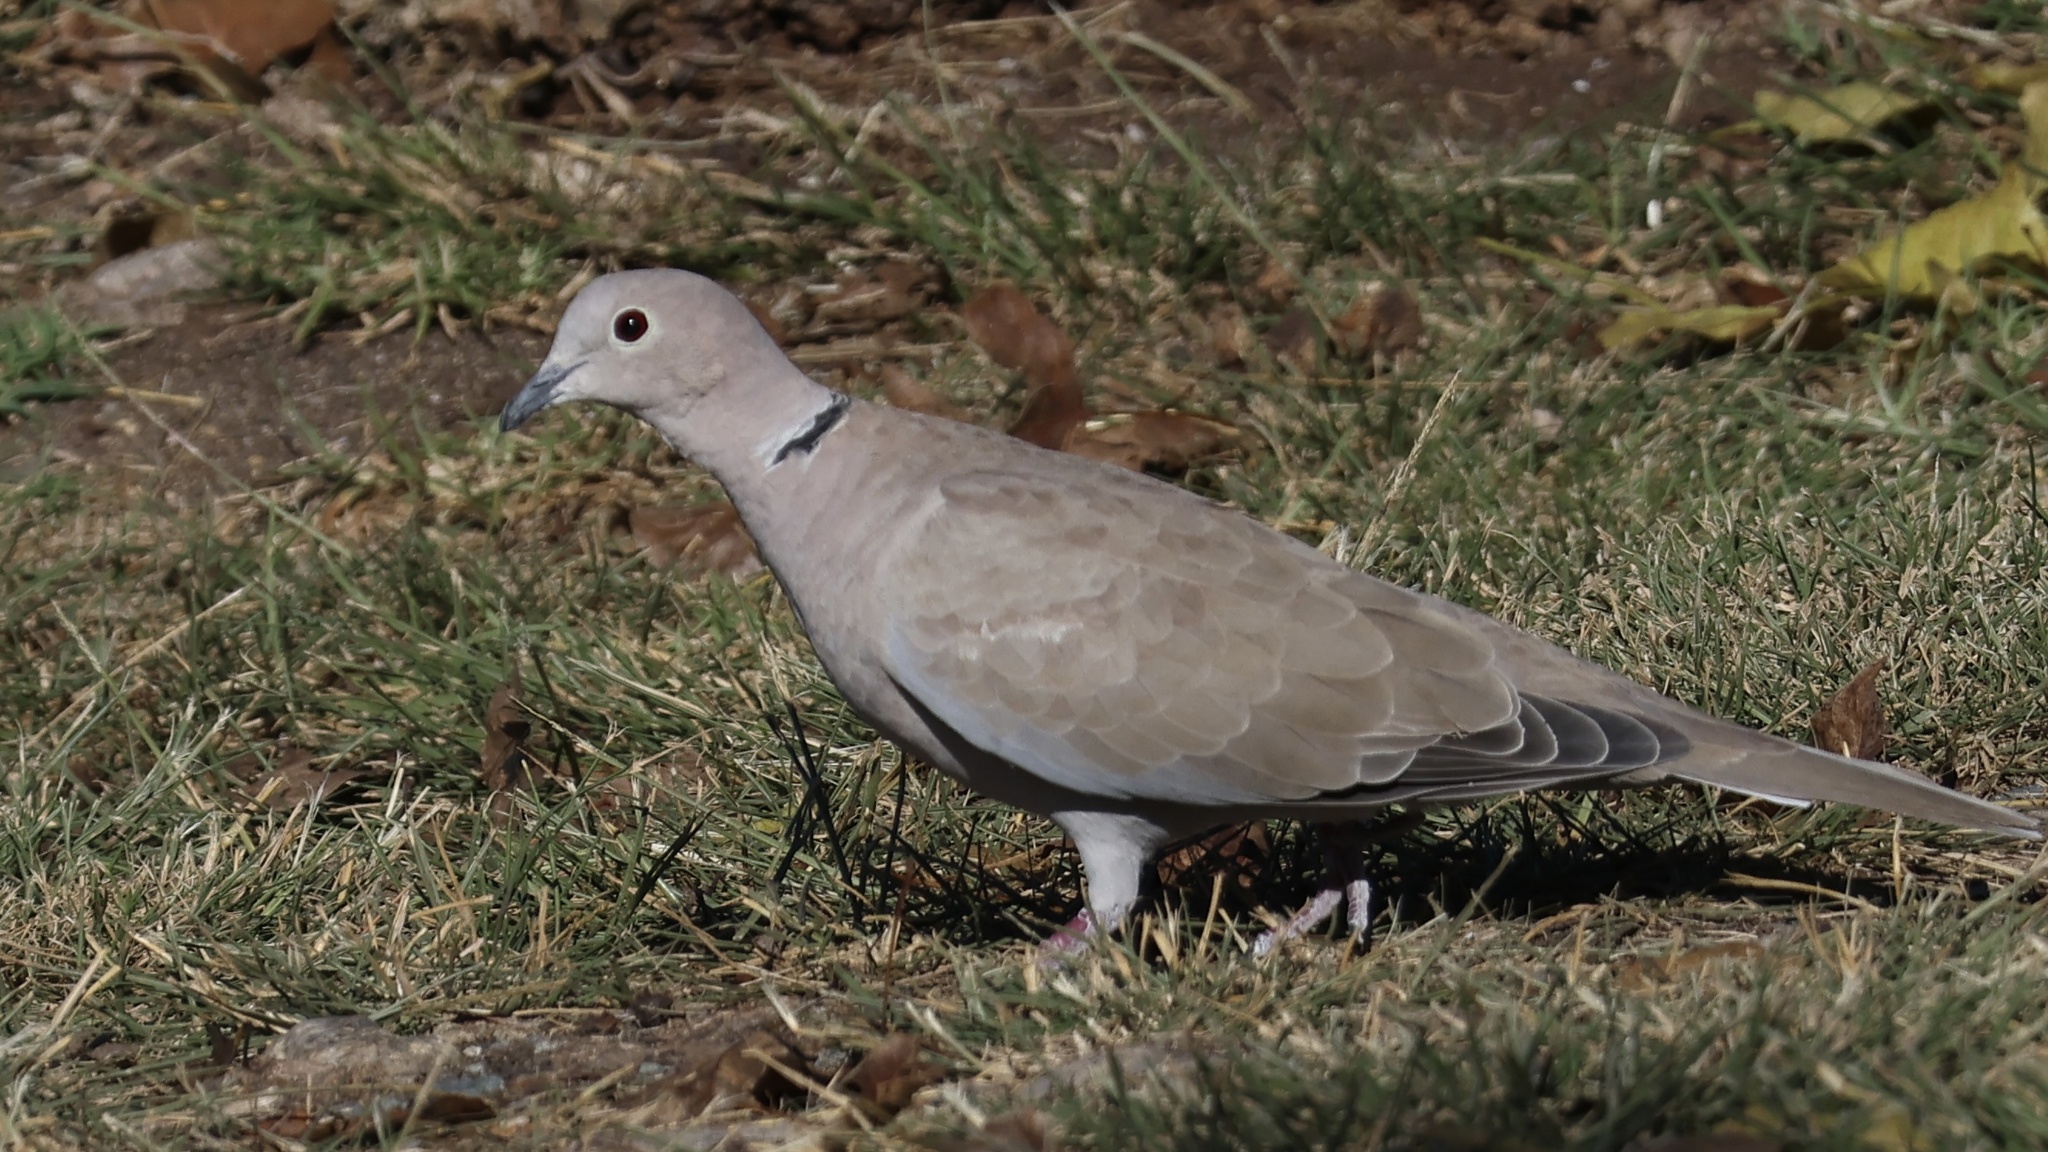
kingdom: Animalia
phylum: Chordata
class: Aves
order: Columbiformes
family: Columbidae
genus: Streptopelia
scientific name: Streptopelia decaocto
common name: Eurasian collared dove
